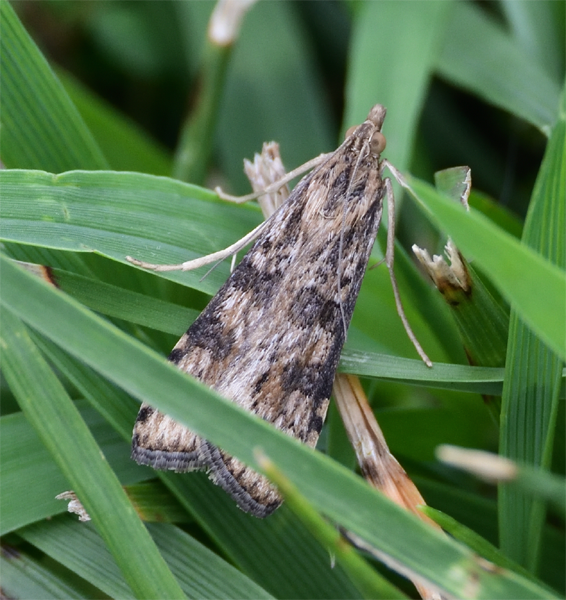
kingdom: Animalia
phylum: Arthropoda
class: Insecta
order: Lepidoptera
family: Crambidae
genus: Nomophila
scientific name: Nomophila nearctica
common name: American rush veneer
